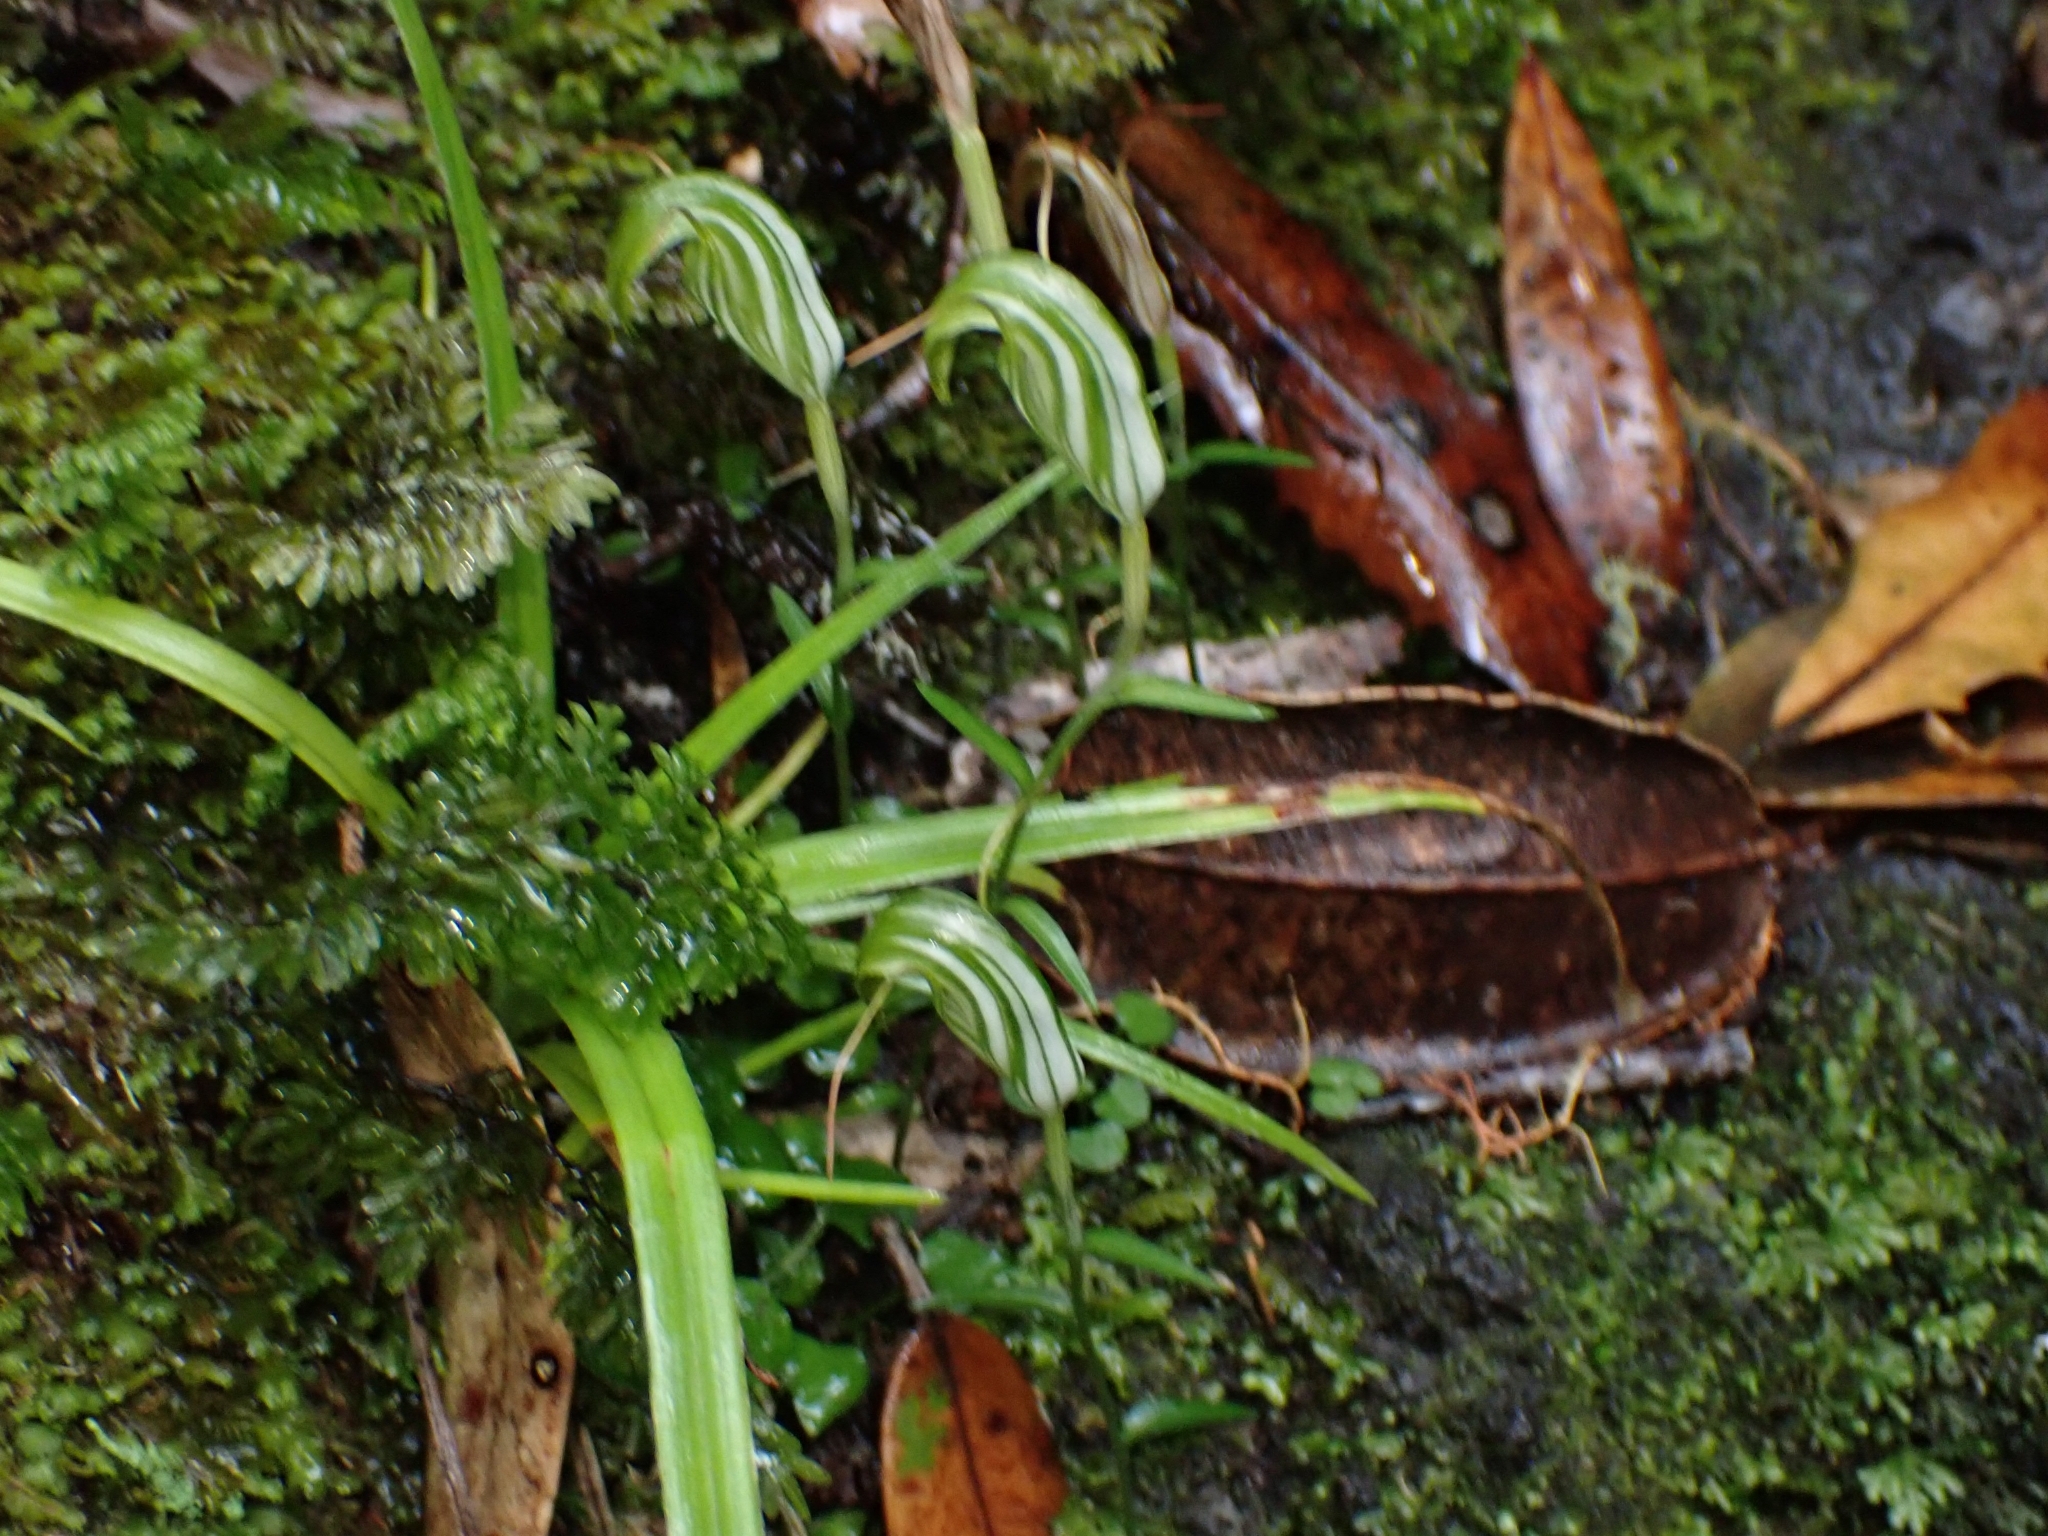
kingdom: Plantae
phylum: Tracheophyta
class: Liliopsida
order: Asparagales
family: Orchidaceae
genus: Pterostylis
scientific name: Pterostylis alobula
